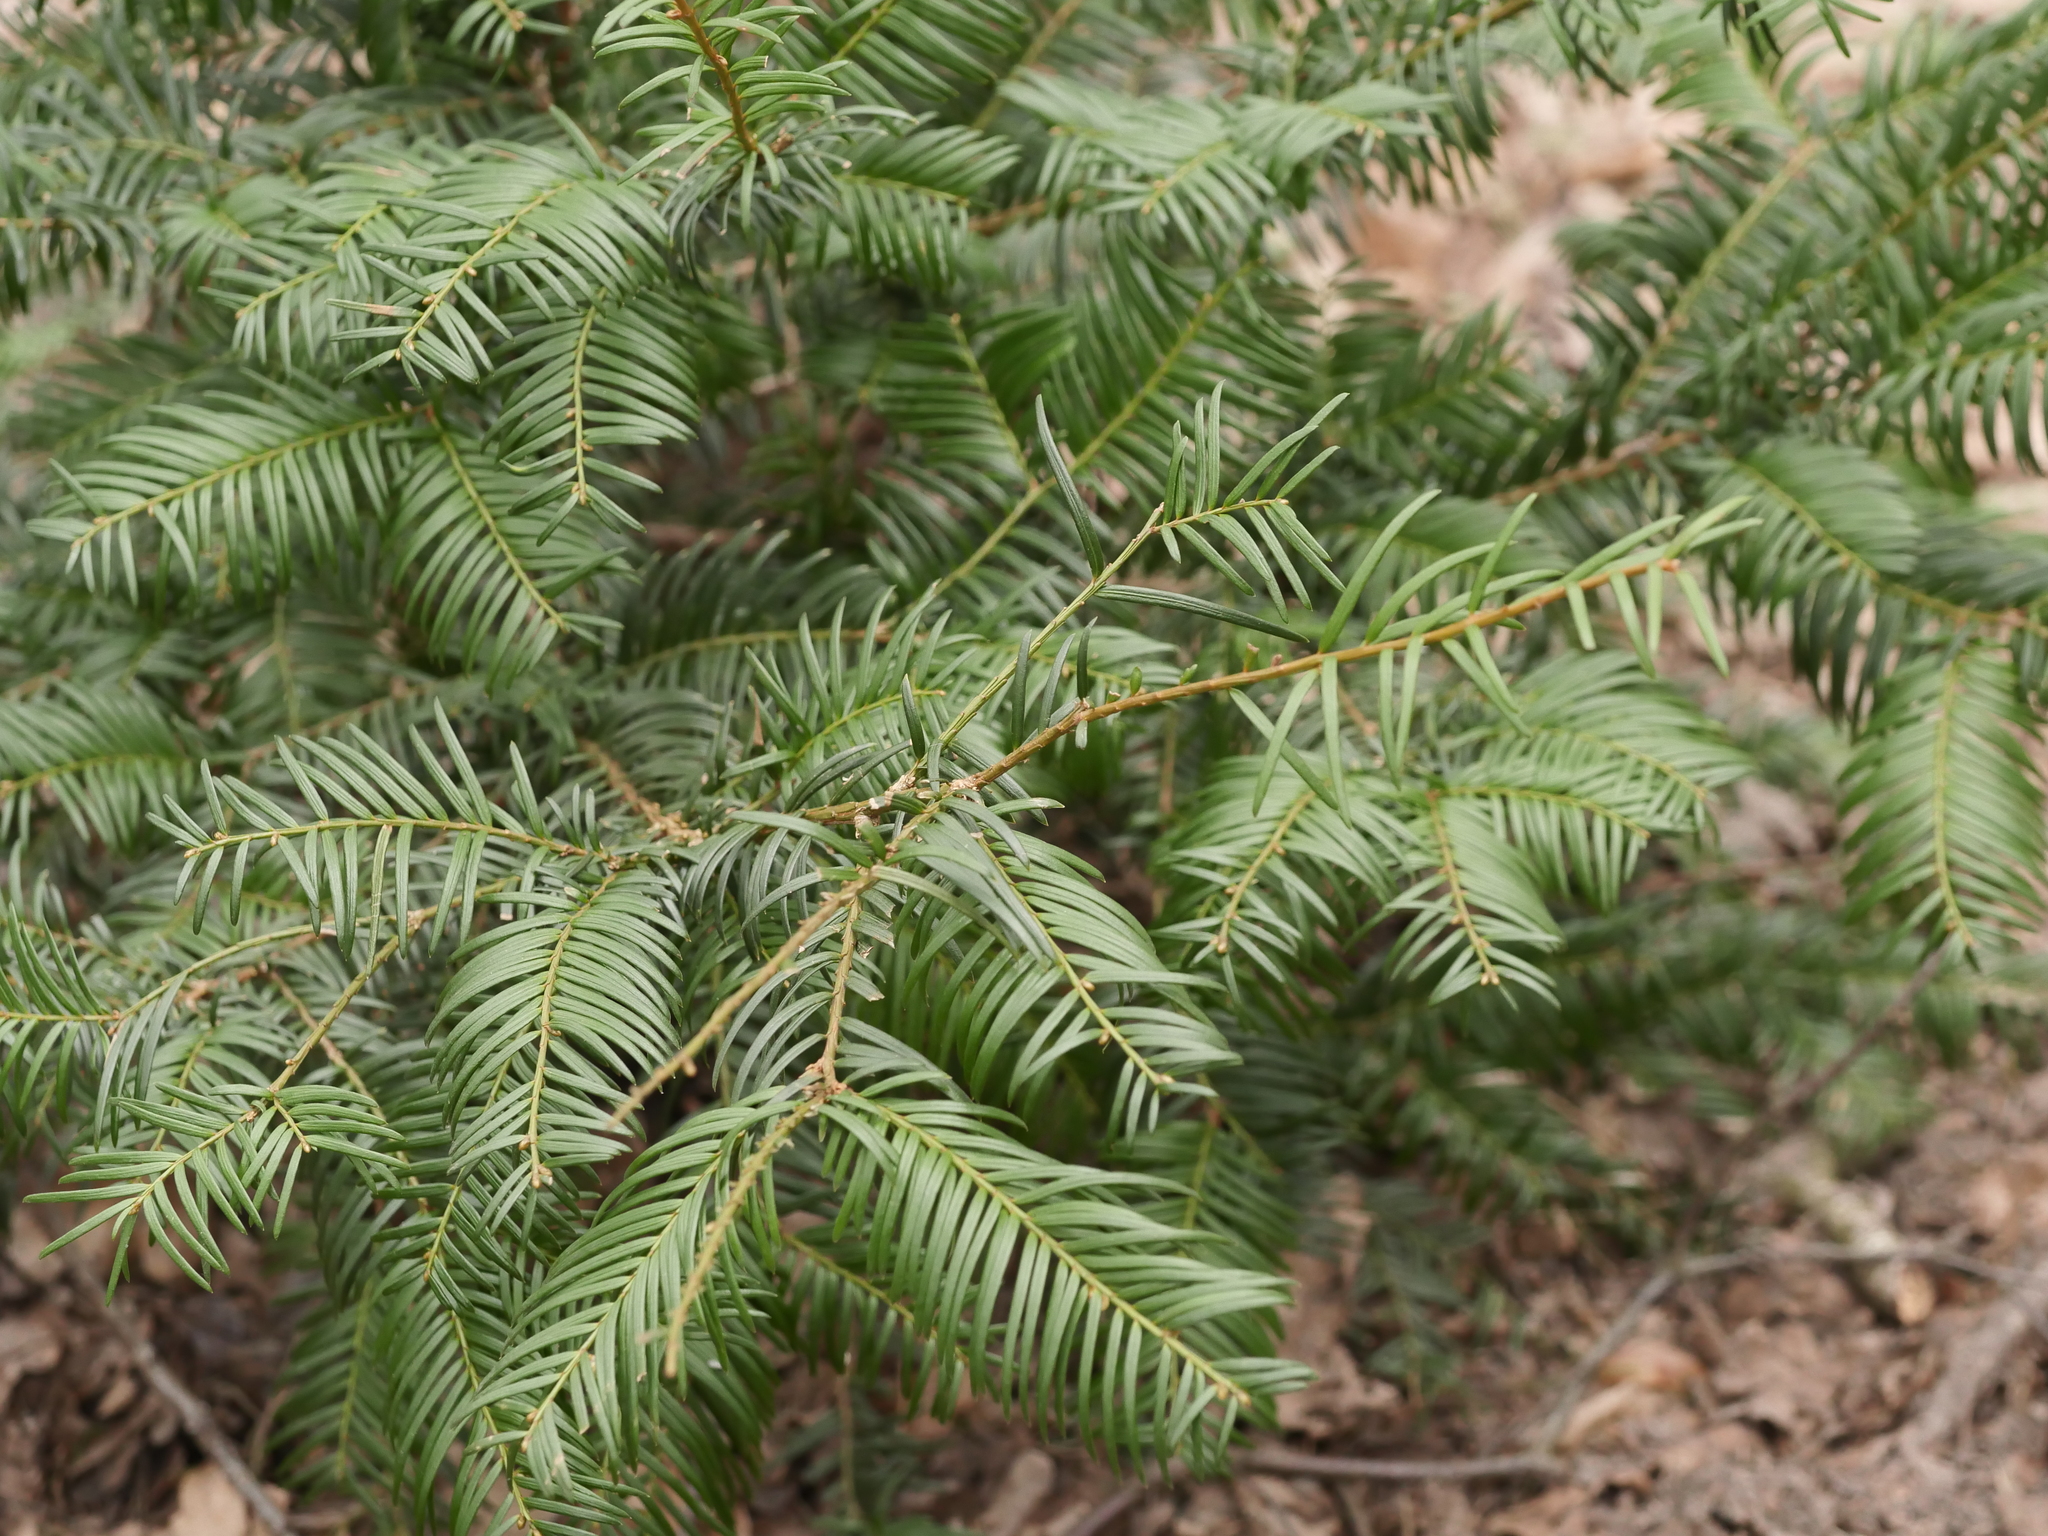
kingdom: Plantae
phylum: Tracheophyta
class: Pinopsida
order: Pinales
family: Taxaceae
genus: Taxus
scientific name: Taxus baccata
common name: Yew
